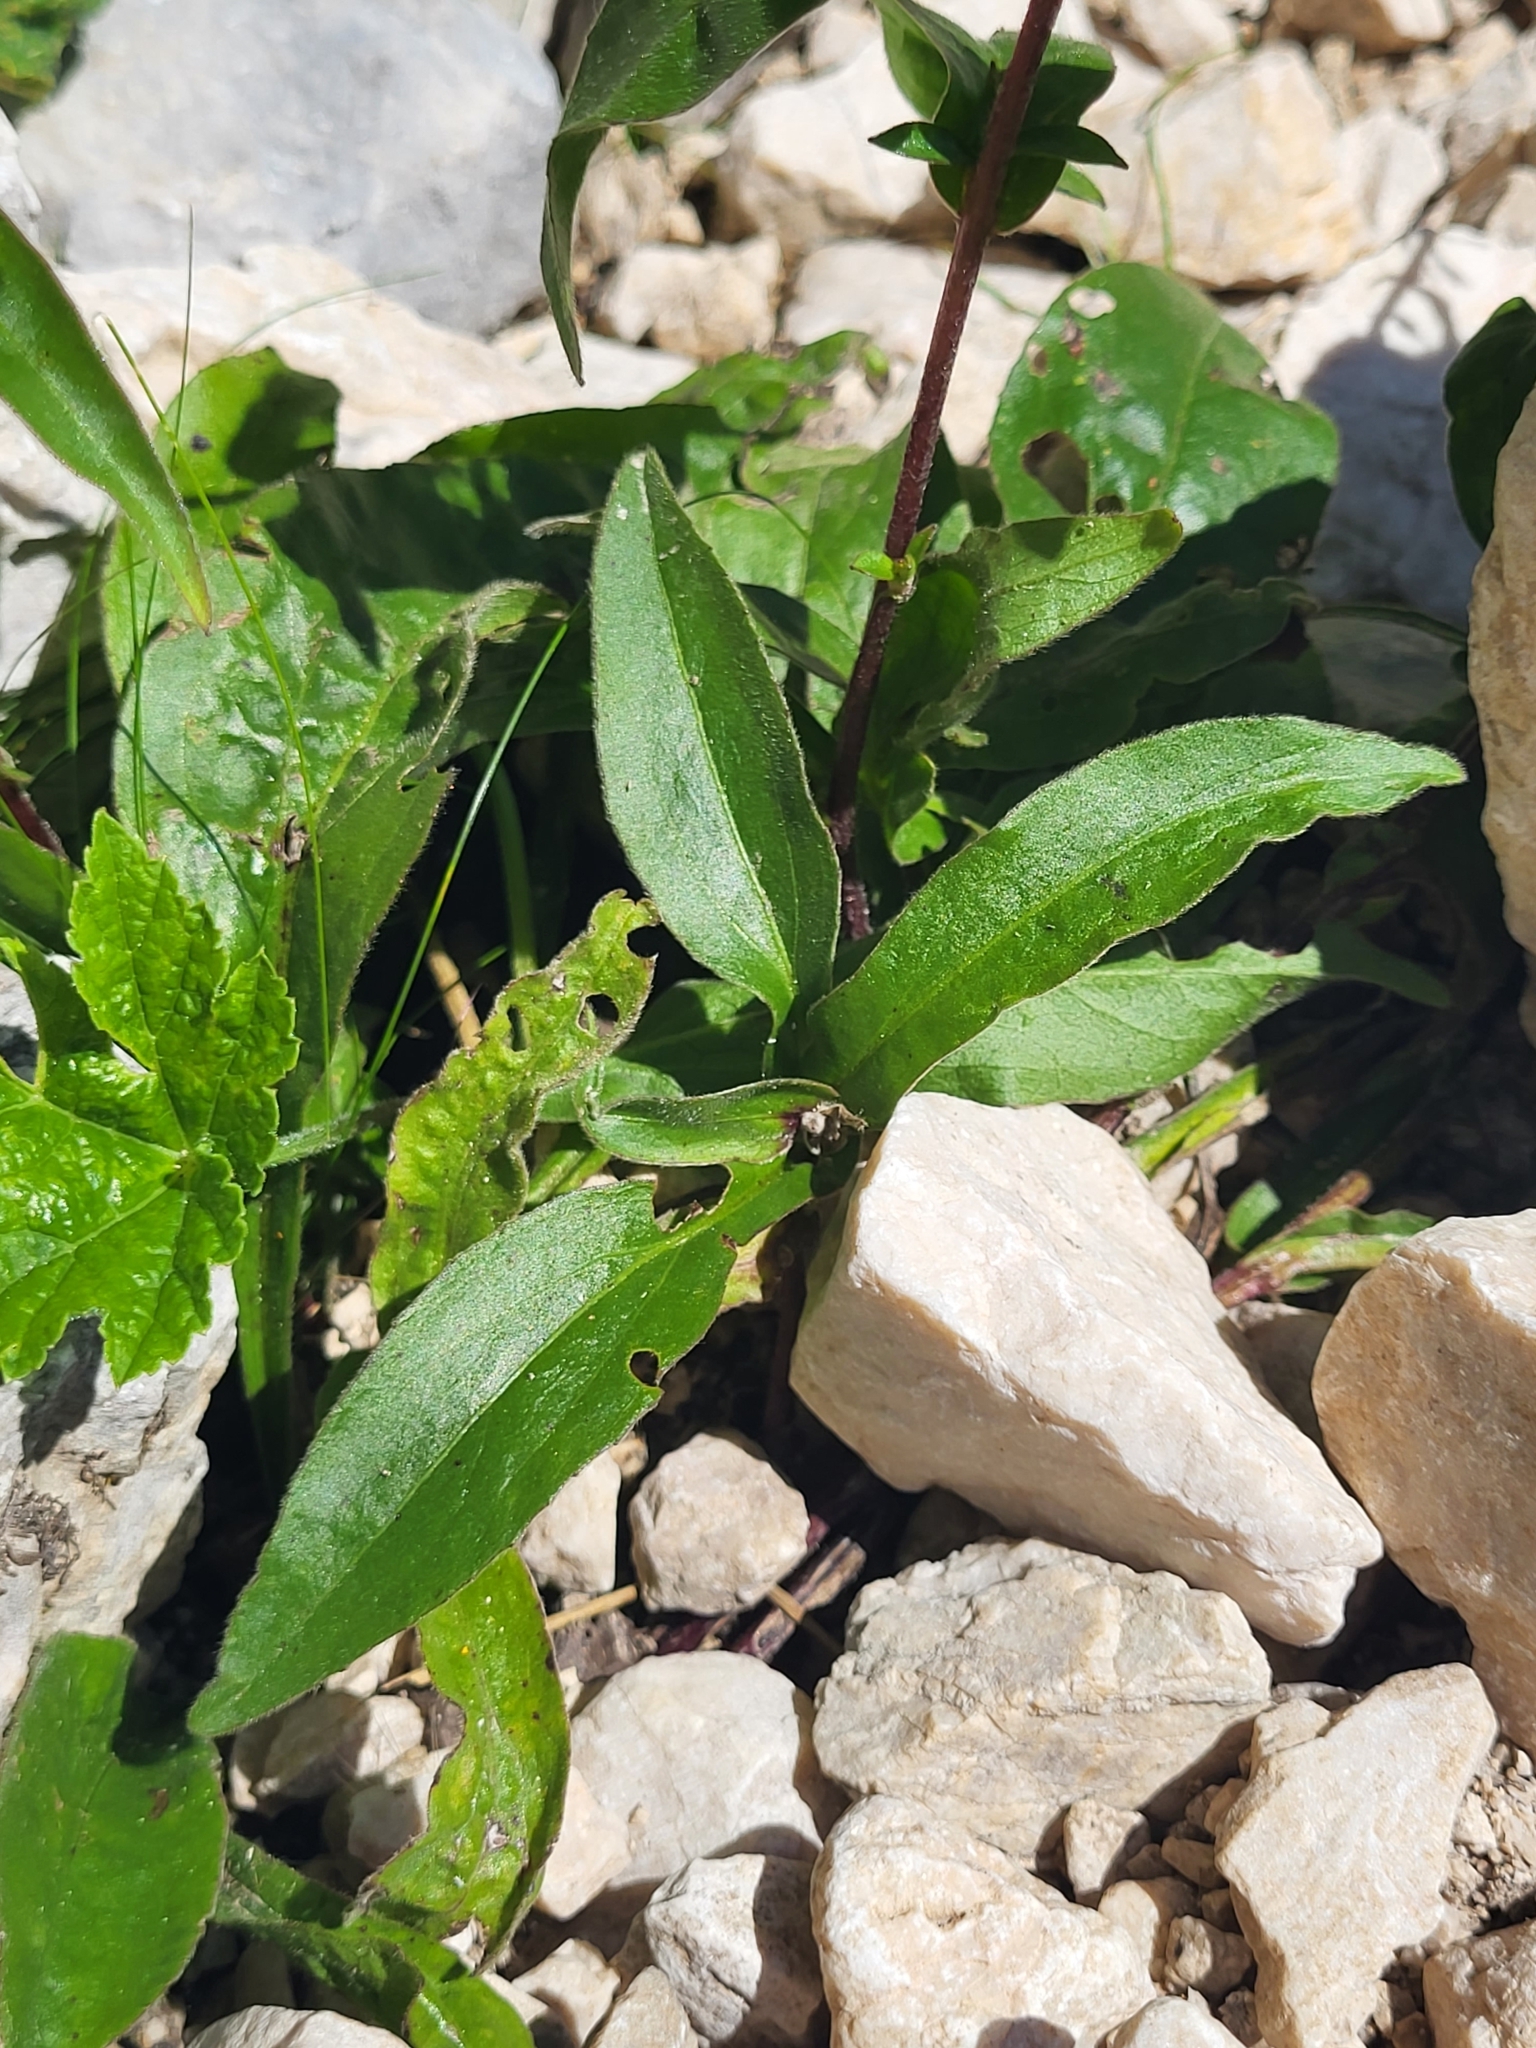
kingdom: Plantae
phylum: Tracheophyta
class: Magnoliopsida
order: Asterales
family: Asteraceae
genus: Buphthalmum
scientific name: Buphthalmum salicifolium
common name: Willow-leaved yellow-oxeye
